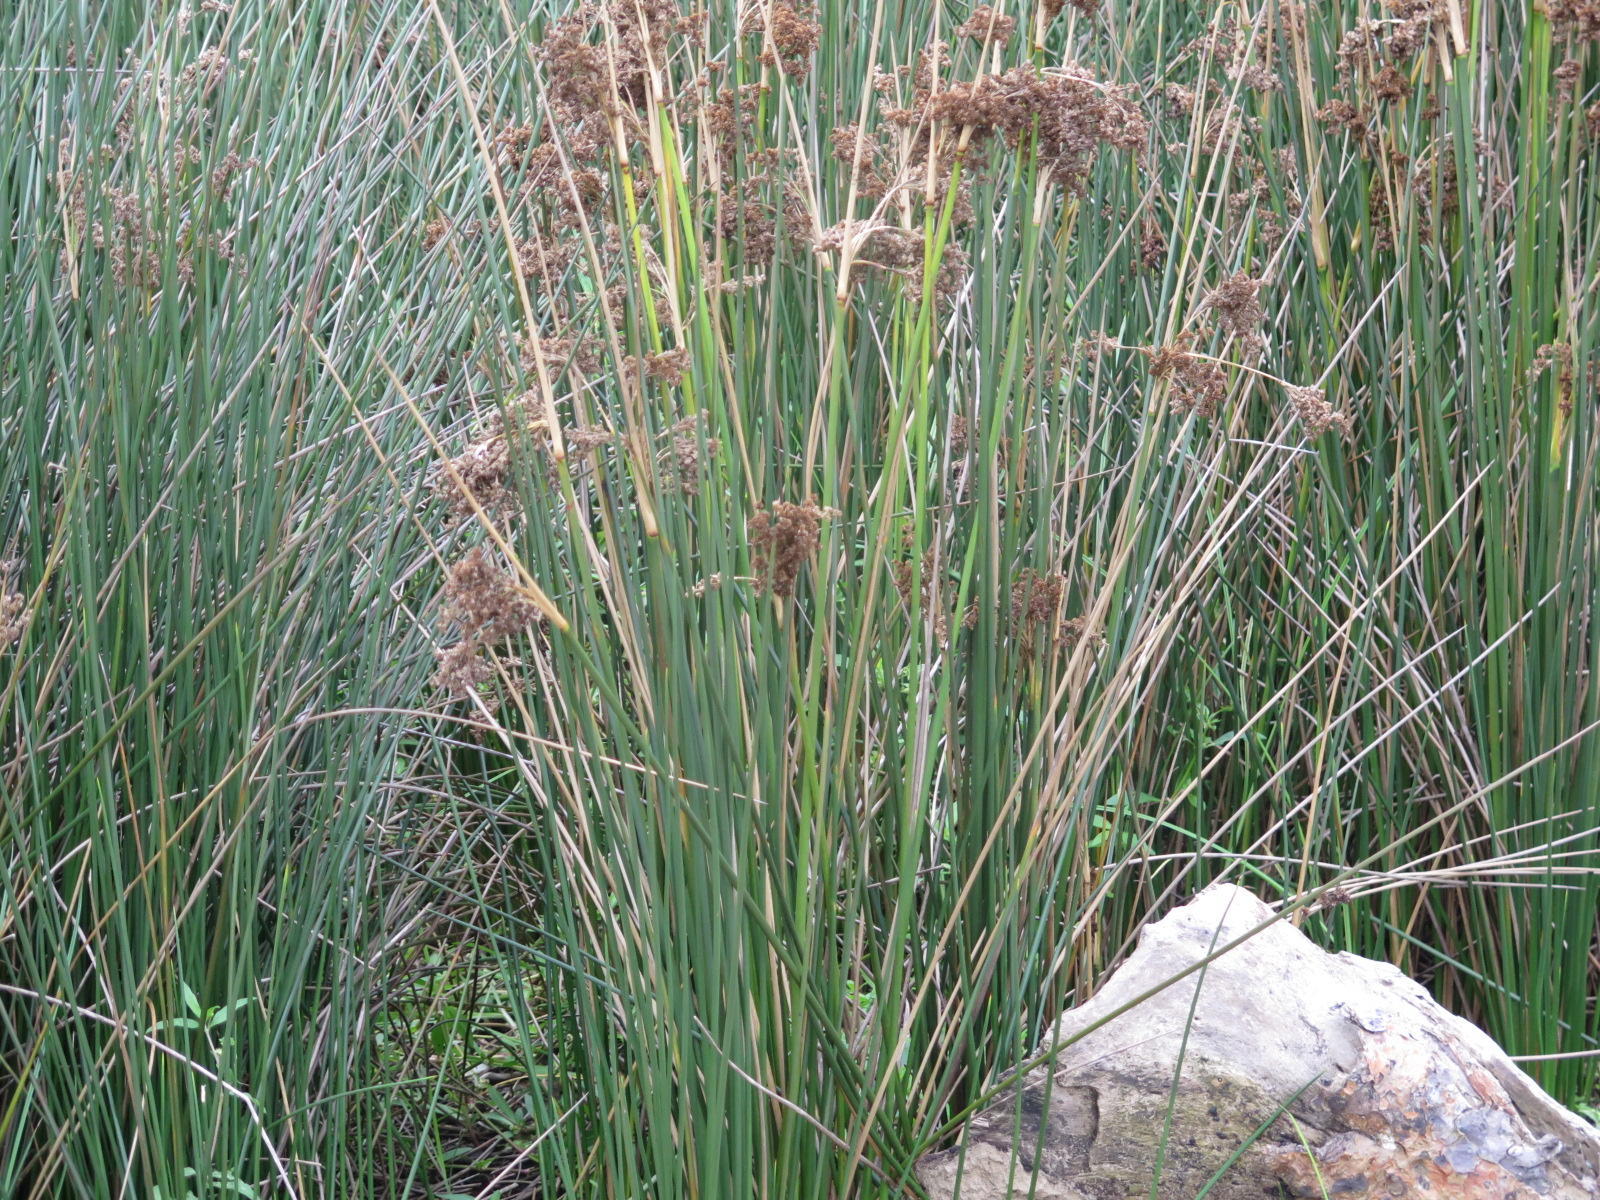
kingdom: Plantae
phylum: Tracheophyta
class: Liliopsida
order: Poales
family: Juncaceae
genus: Juncus
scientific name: Juncus kraussii
